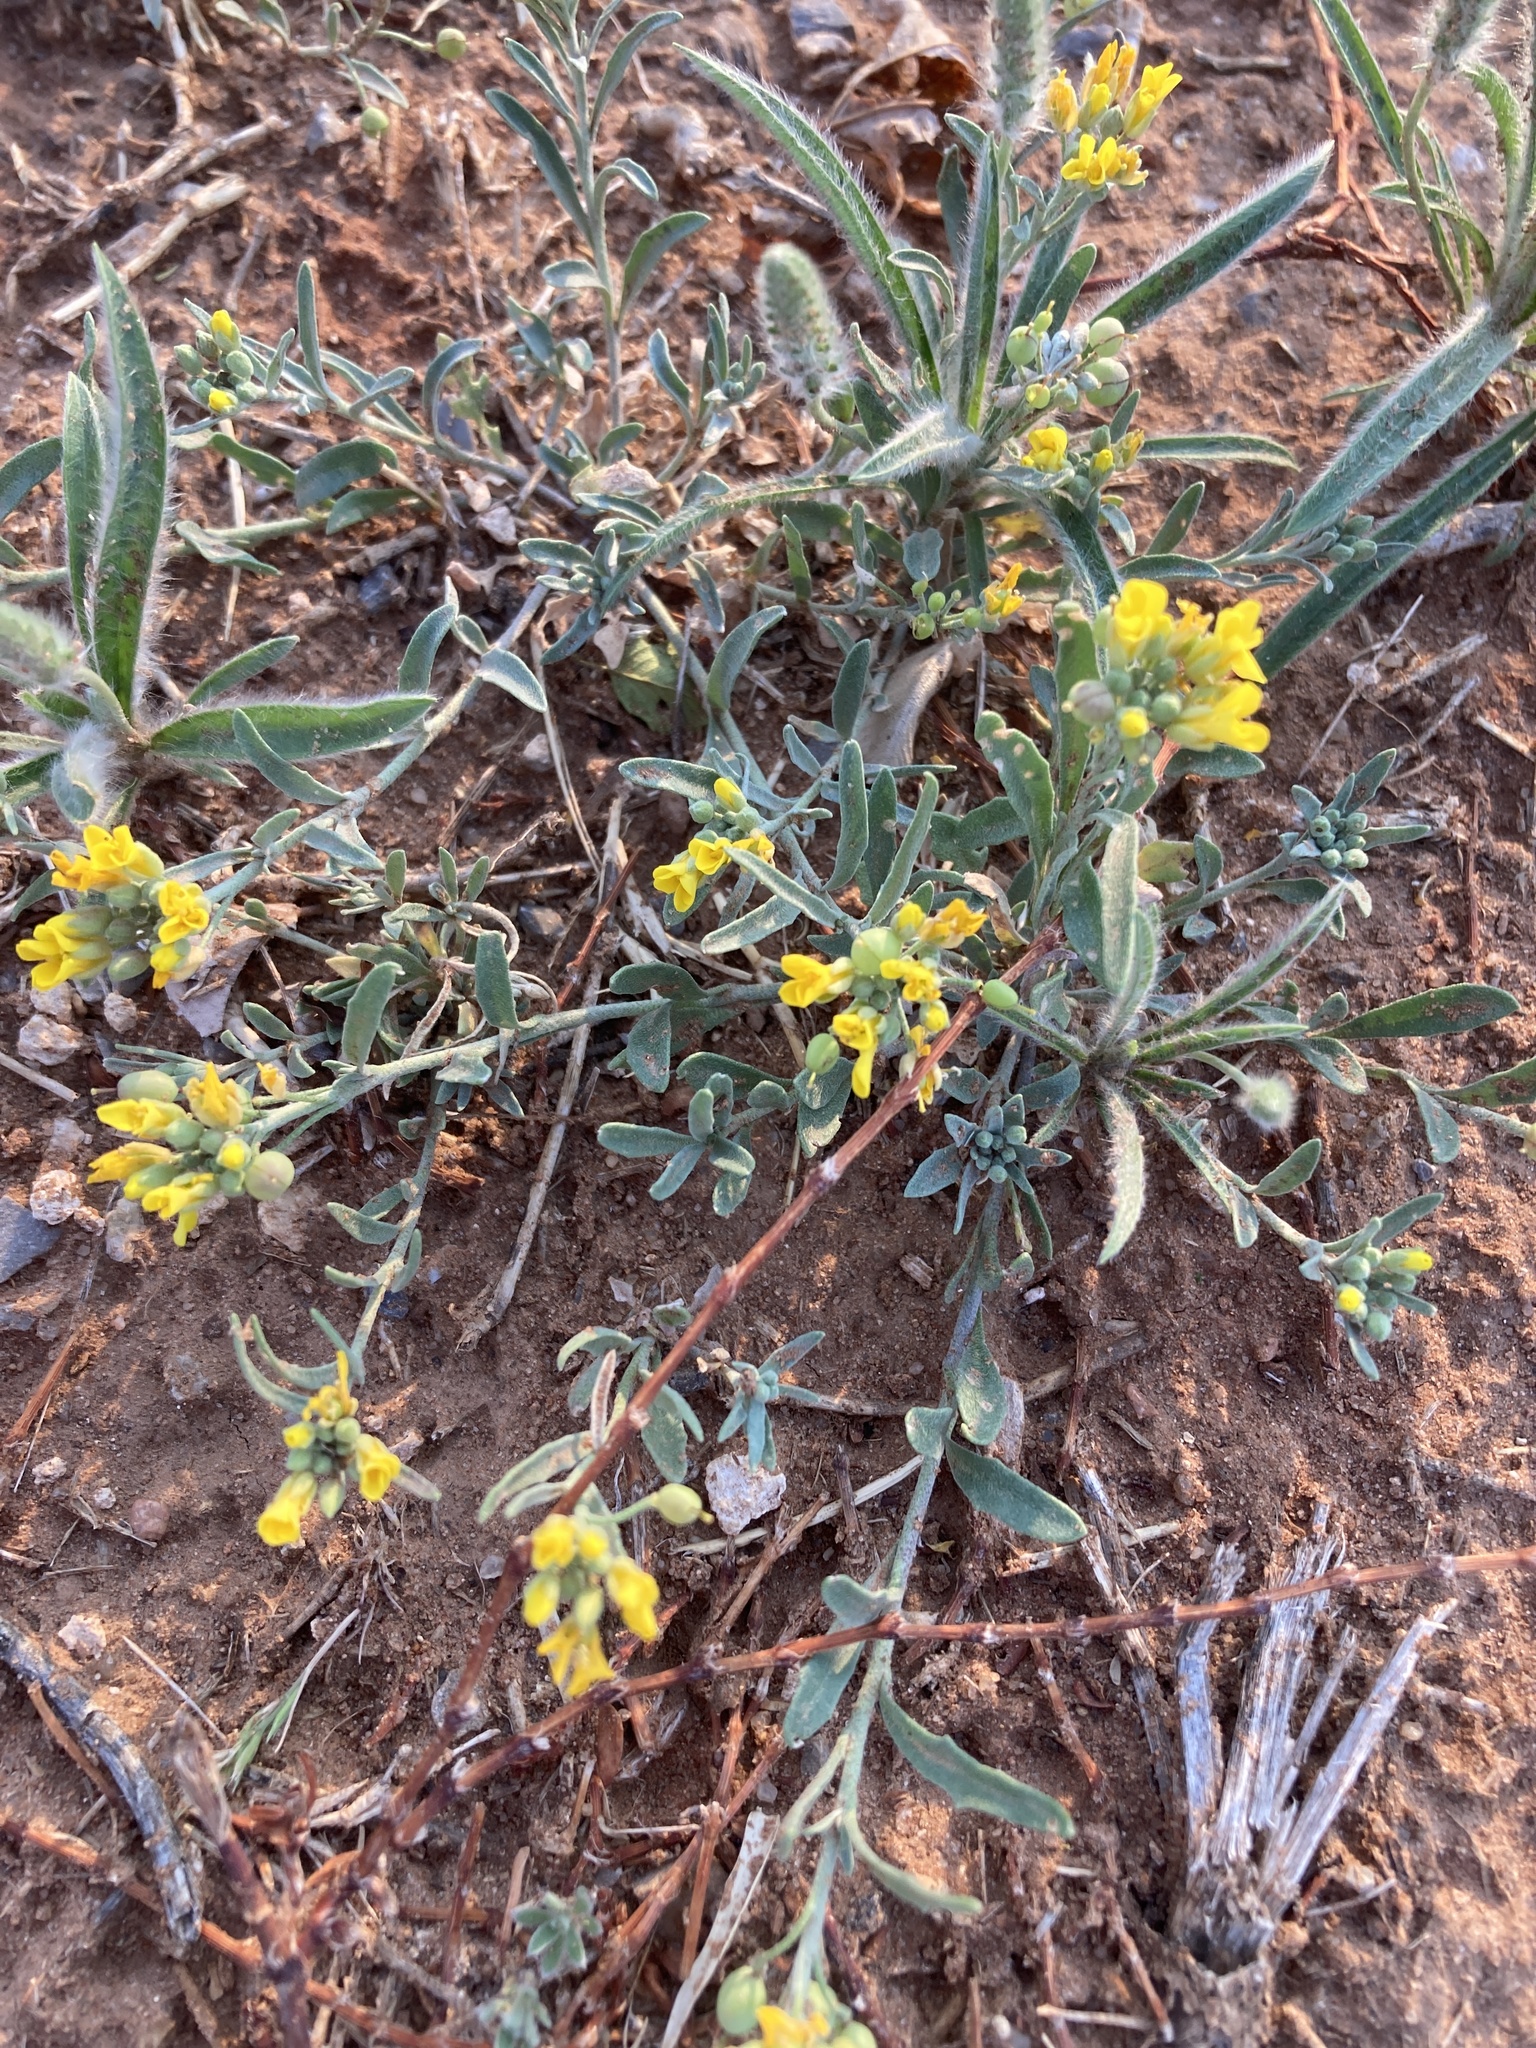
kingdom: Plantae
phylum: Tracheophyta
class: Magnoliopsida
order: Brassicales
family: Brassicaceae
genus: Physaria
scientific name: Physaria gordonii
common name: Gordon's bladderpod
